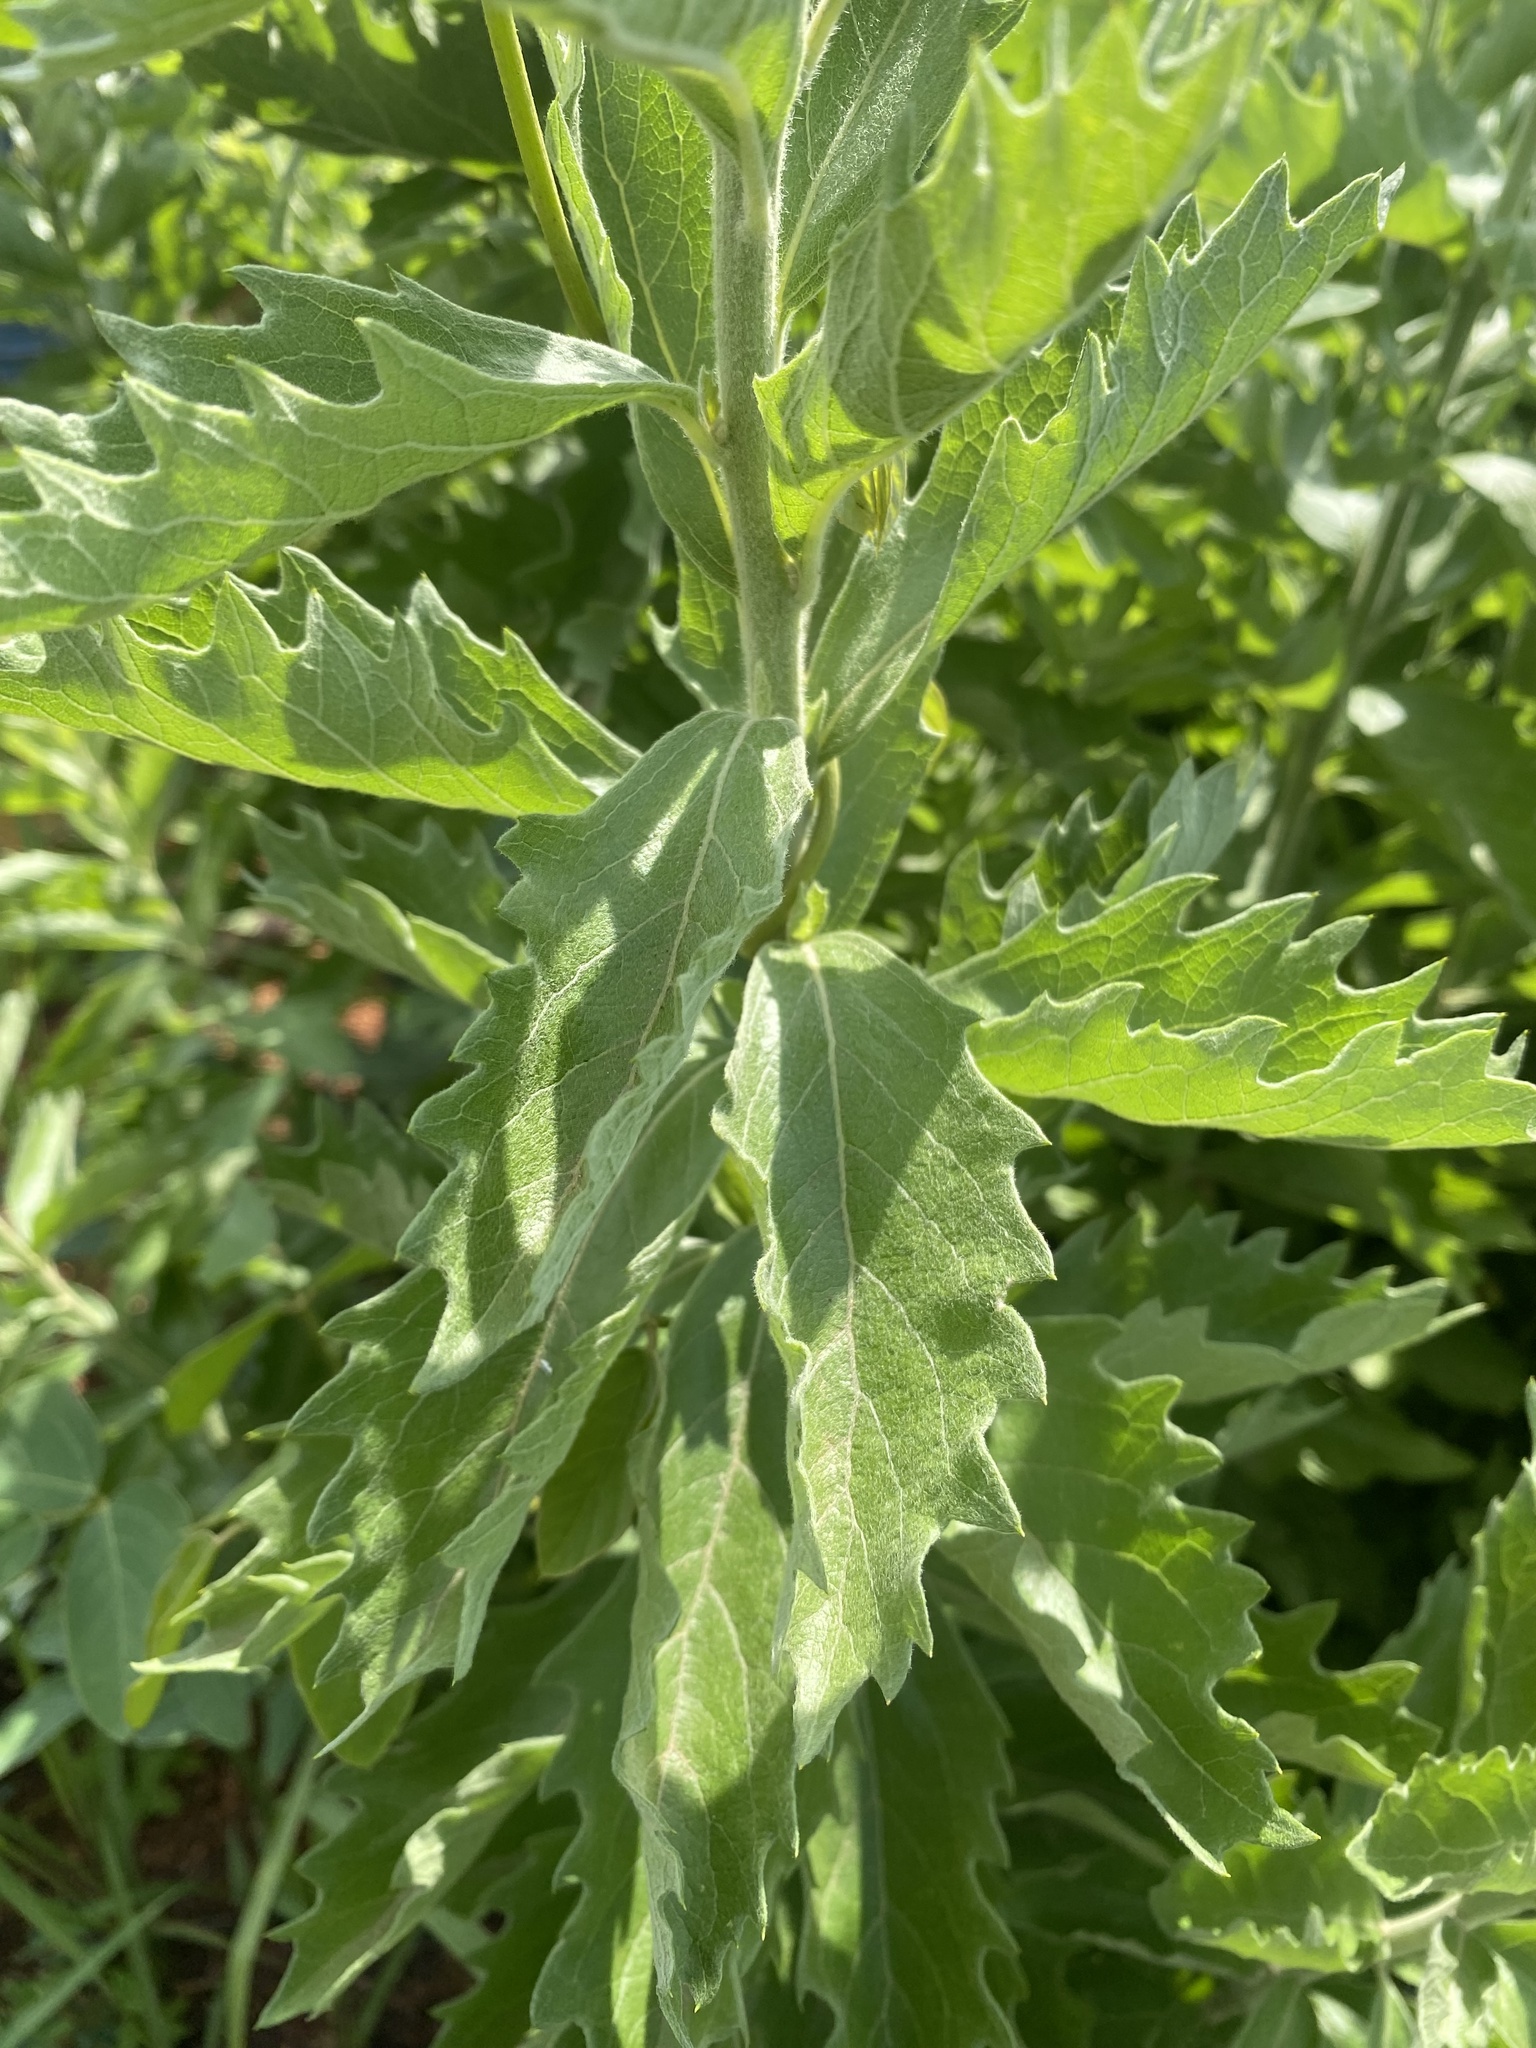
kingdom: Plantae
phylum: Tracheophyta
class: Magnoliopsida
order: Asterales
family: Asteraceae
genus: Gymnanthemum
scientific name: Gymnanthemum crataegifolium
